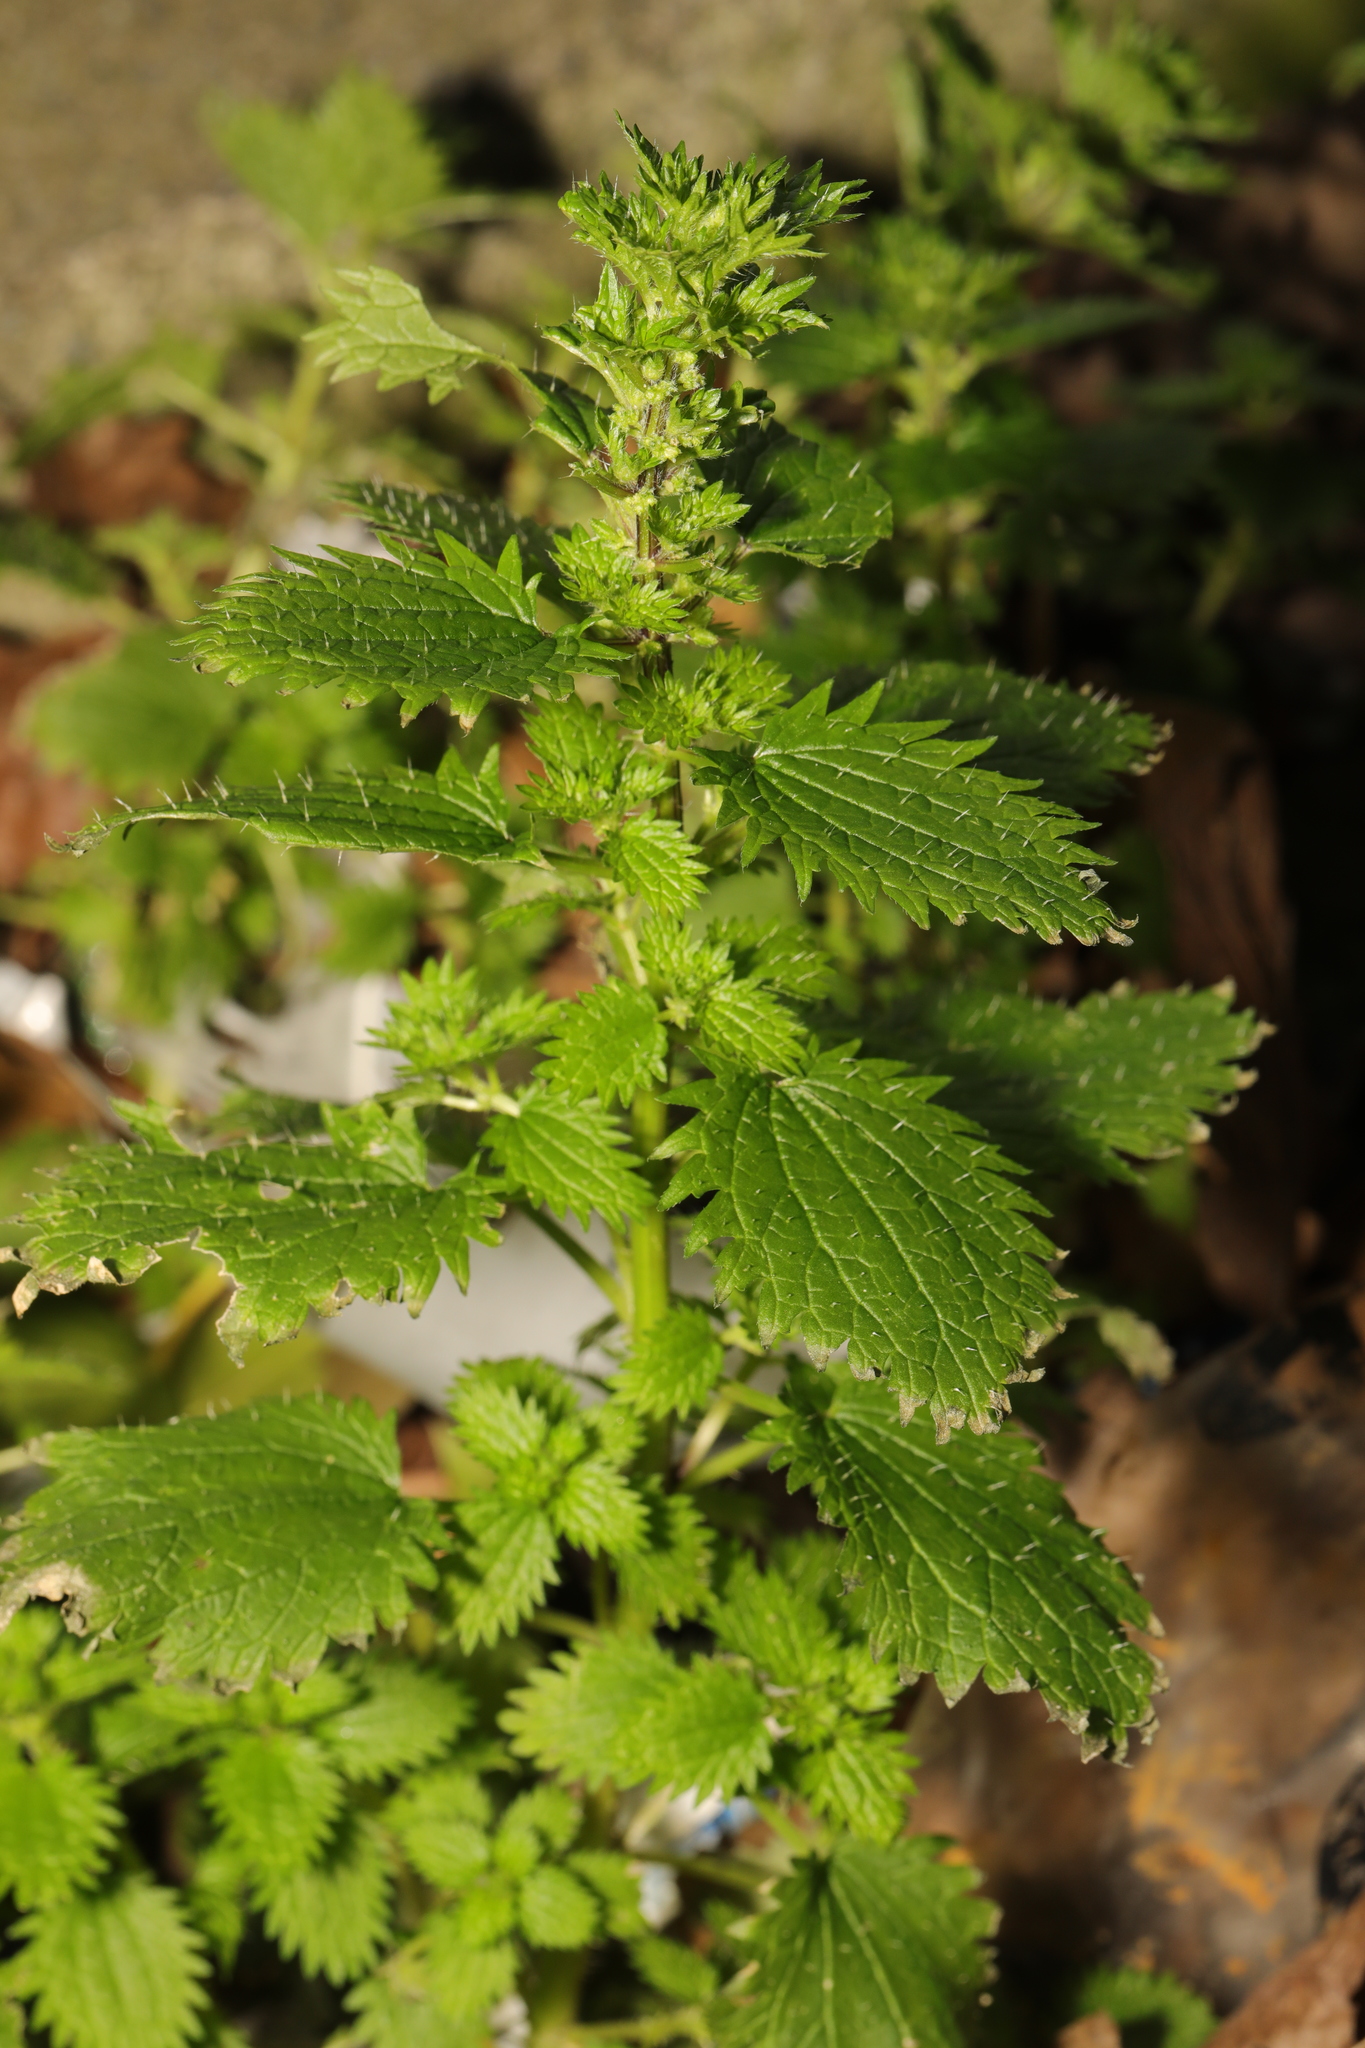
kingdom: Plantae
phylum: Tracheophyta
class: Magnoliopsida
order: Rosales
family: Urticaceae
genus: Urtica
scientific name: Urtica urens
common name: Dwarf nettle
